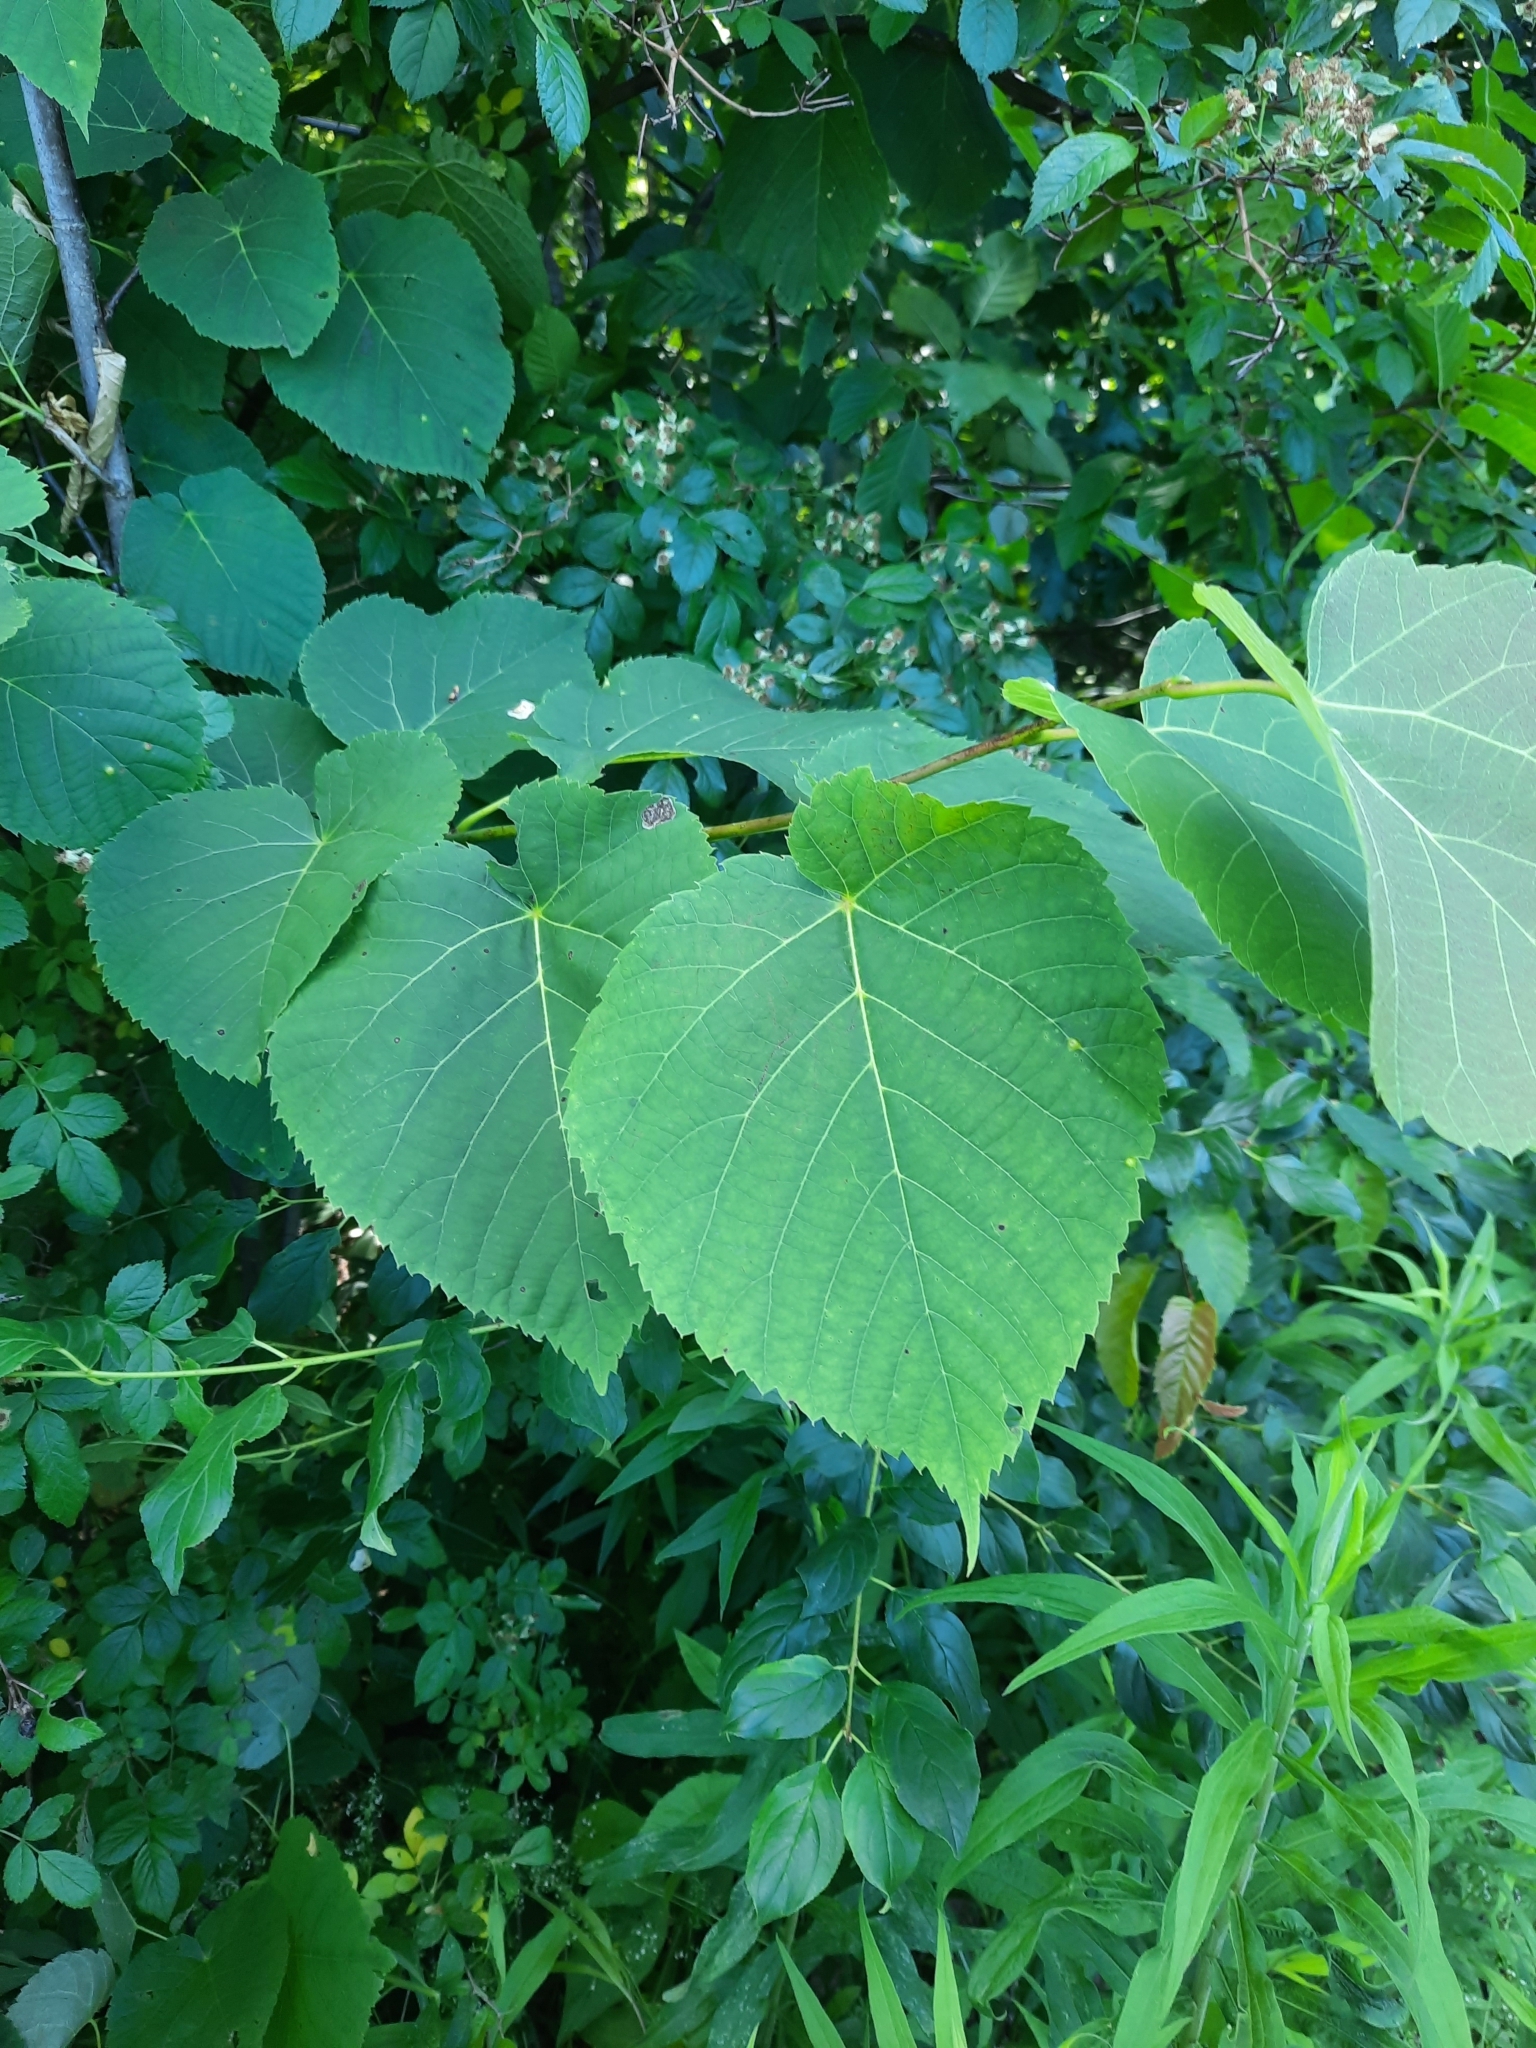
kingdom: Plantae
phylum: Tracheophyta
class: Magnoliopsida
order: Malvales
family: Malvaceae
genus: Tilia
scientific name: Tilia americana
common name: Basswood
